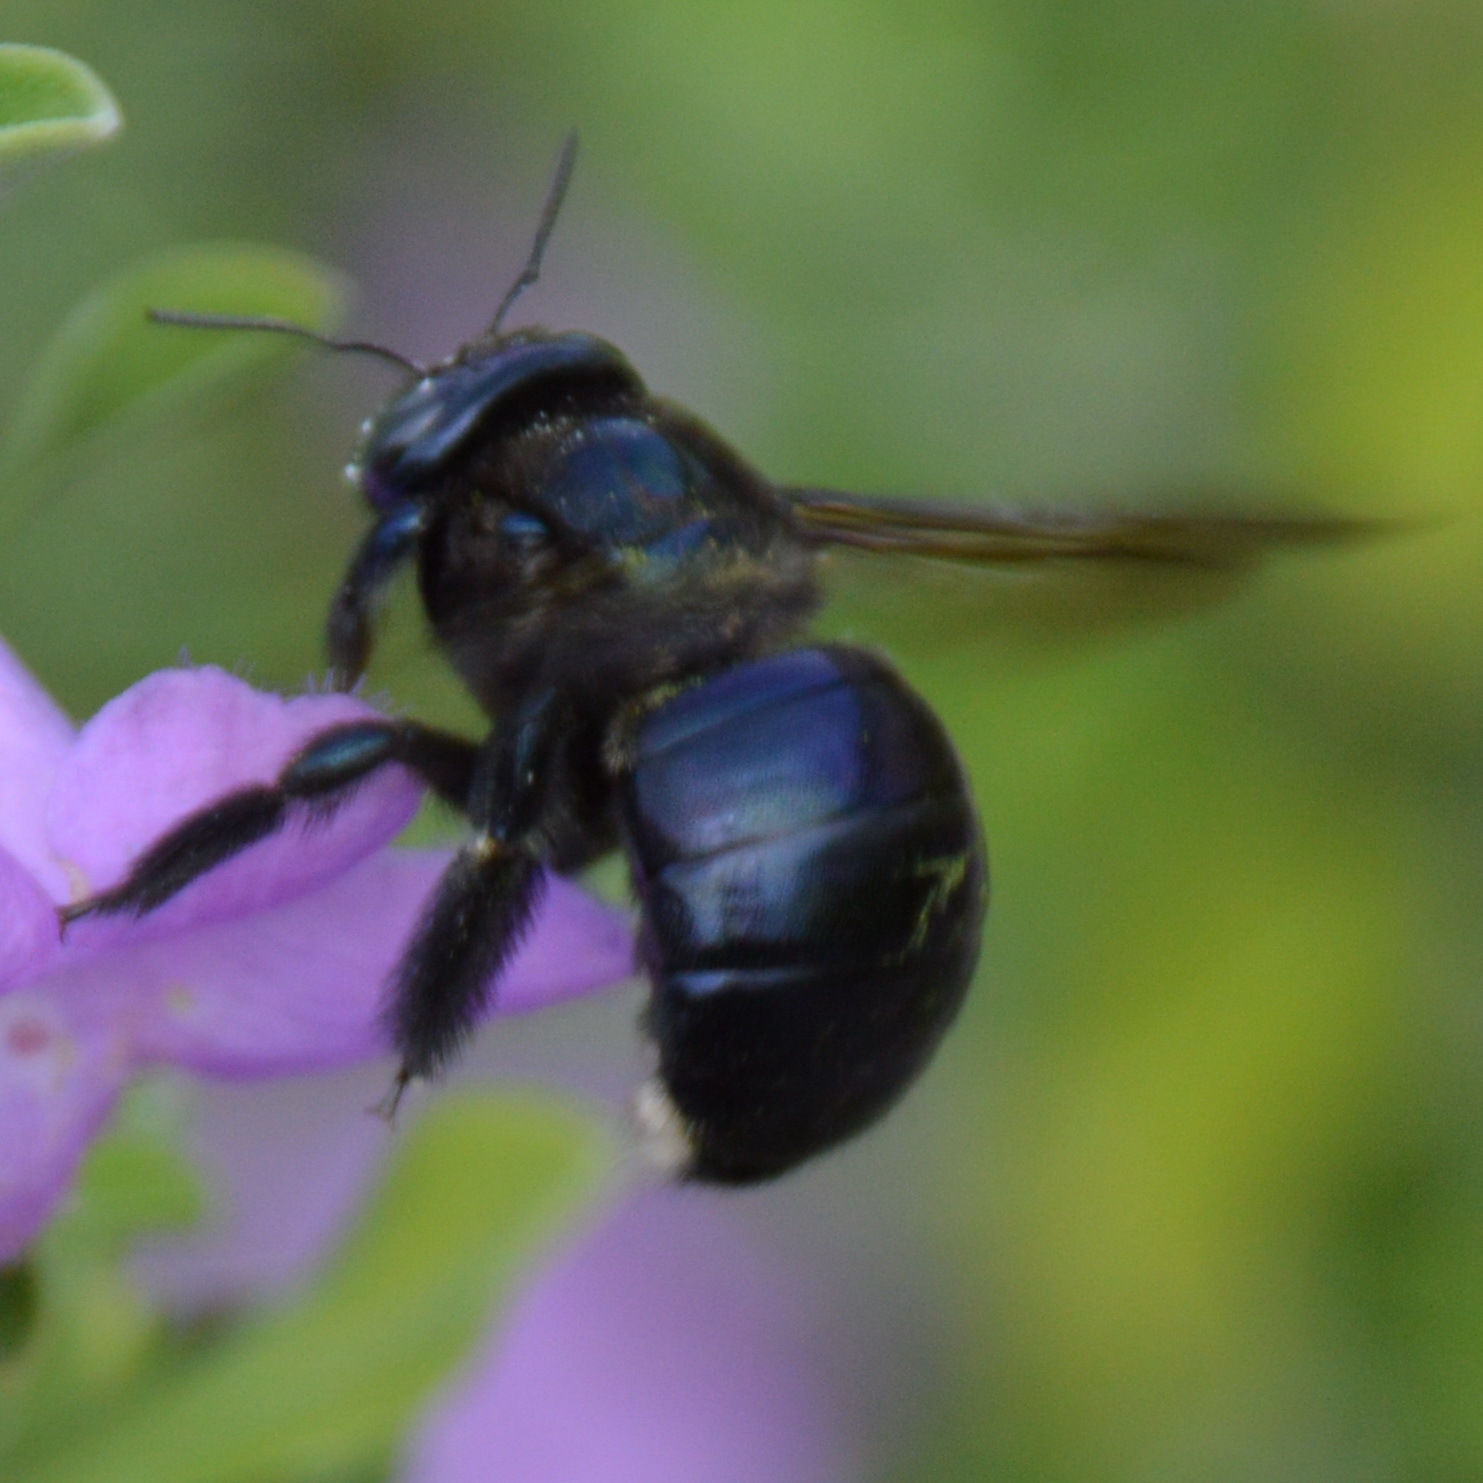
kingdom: Animalia
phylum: Arthropoda
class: Insecta
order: Hymenoptera
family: Apidae
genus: Xylocopa
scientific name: Xylocopa micans
